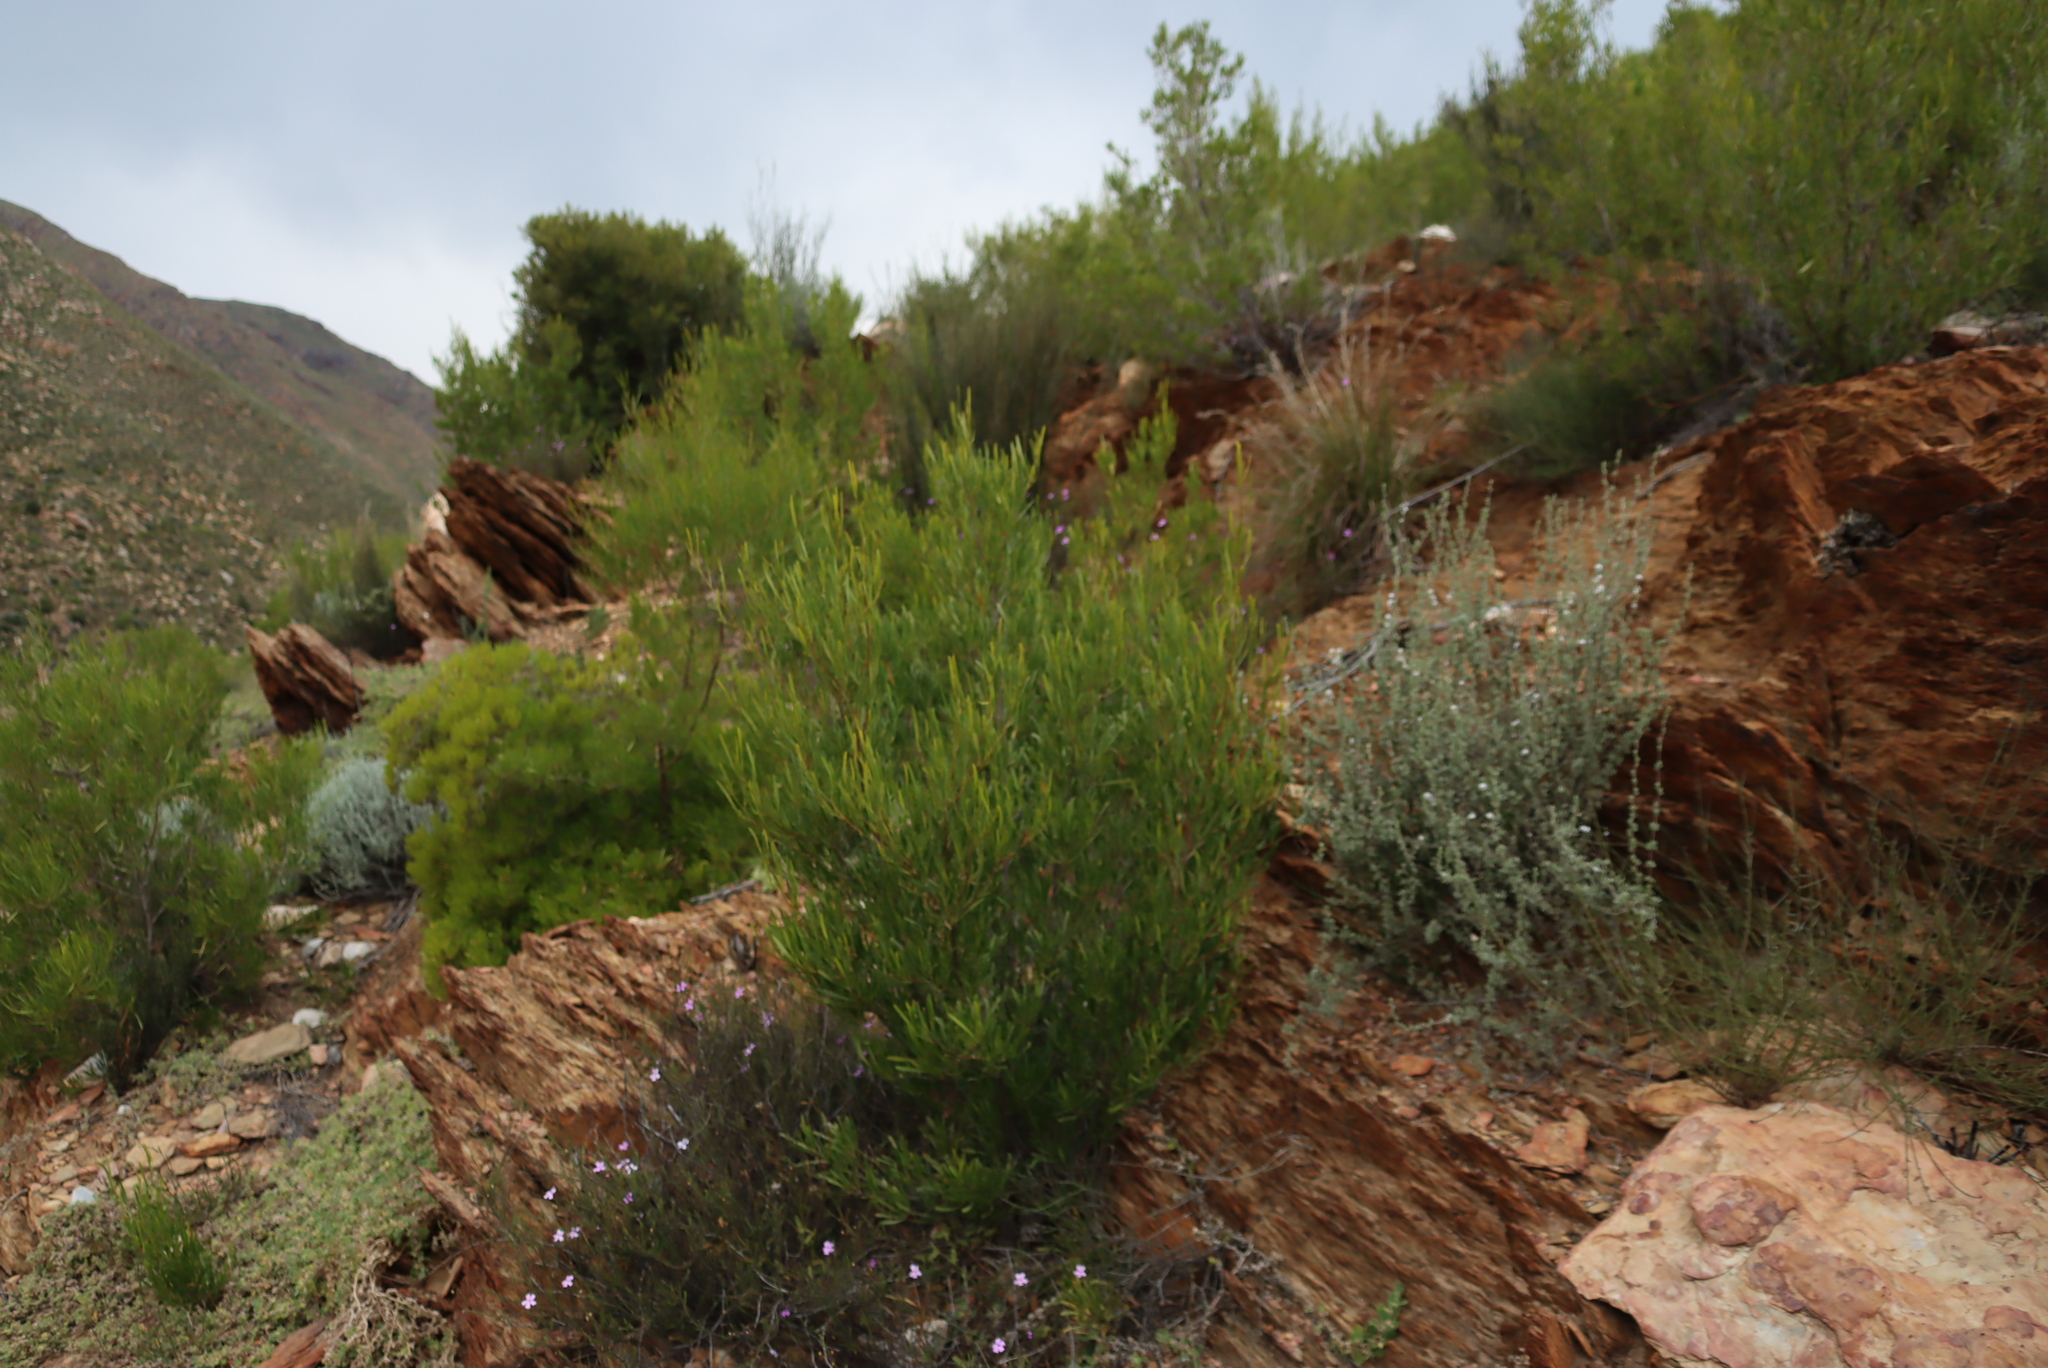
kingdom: Plantae
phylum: Tracheophyta
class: Magnoliopsida
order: Sapindales
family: Sapindaceae
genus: Dodonaea
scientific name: Dodonaea viscosa
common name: Hopbush
